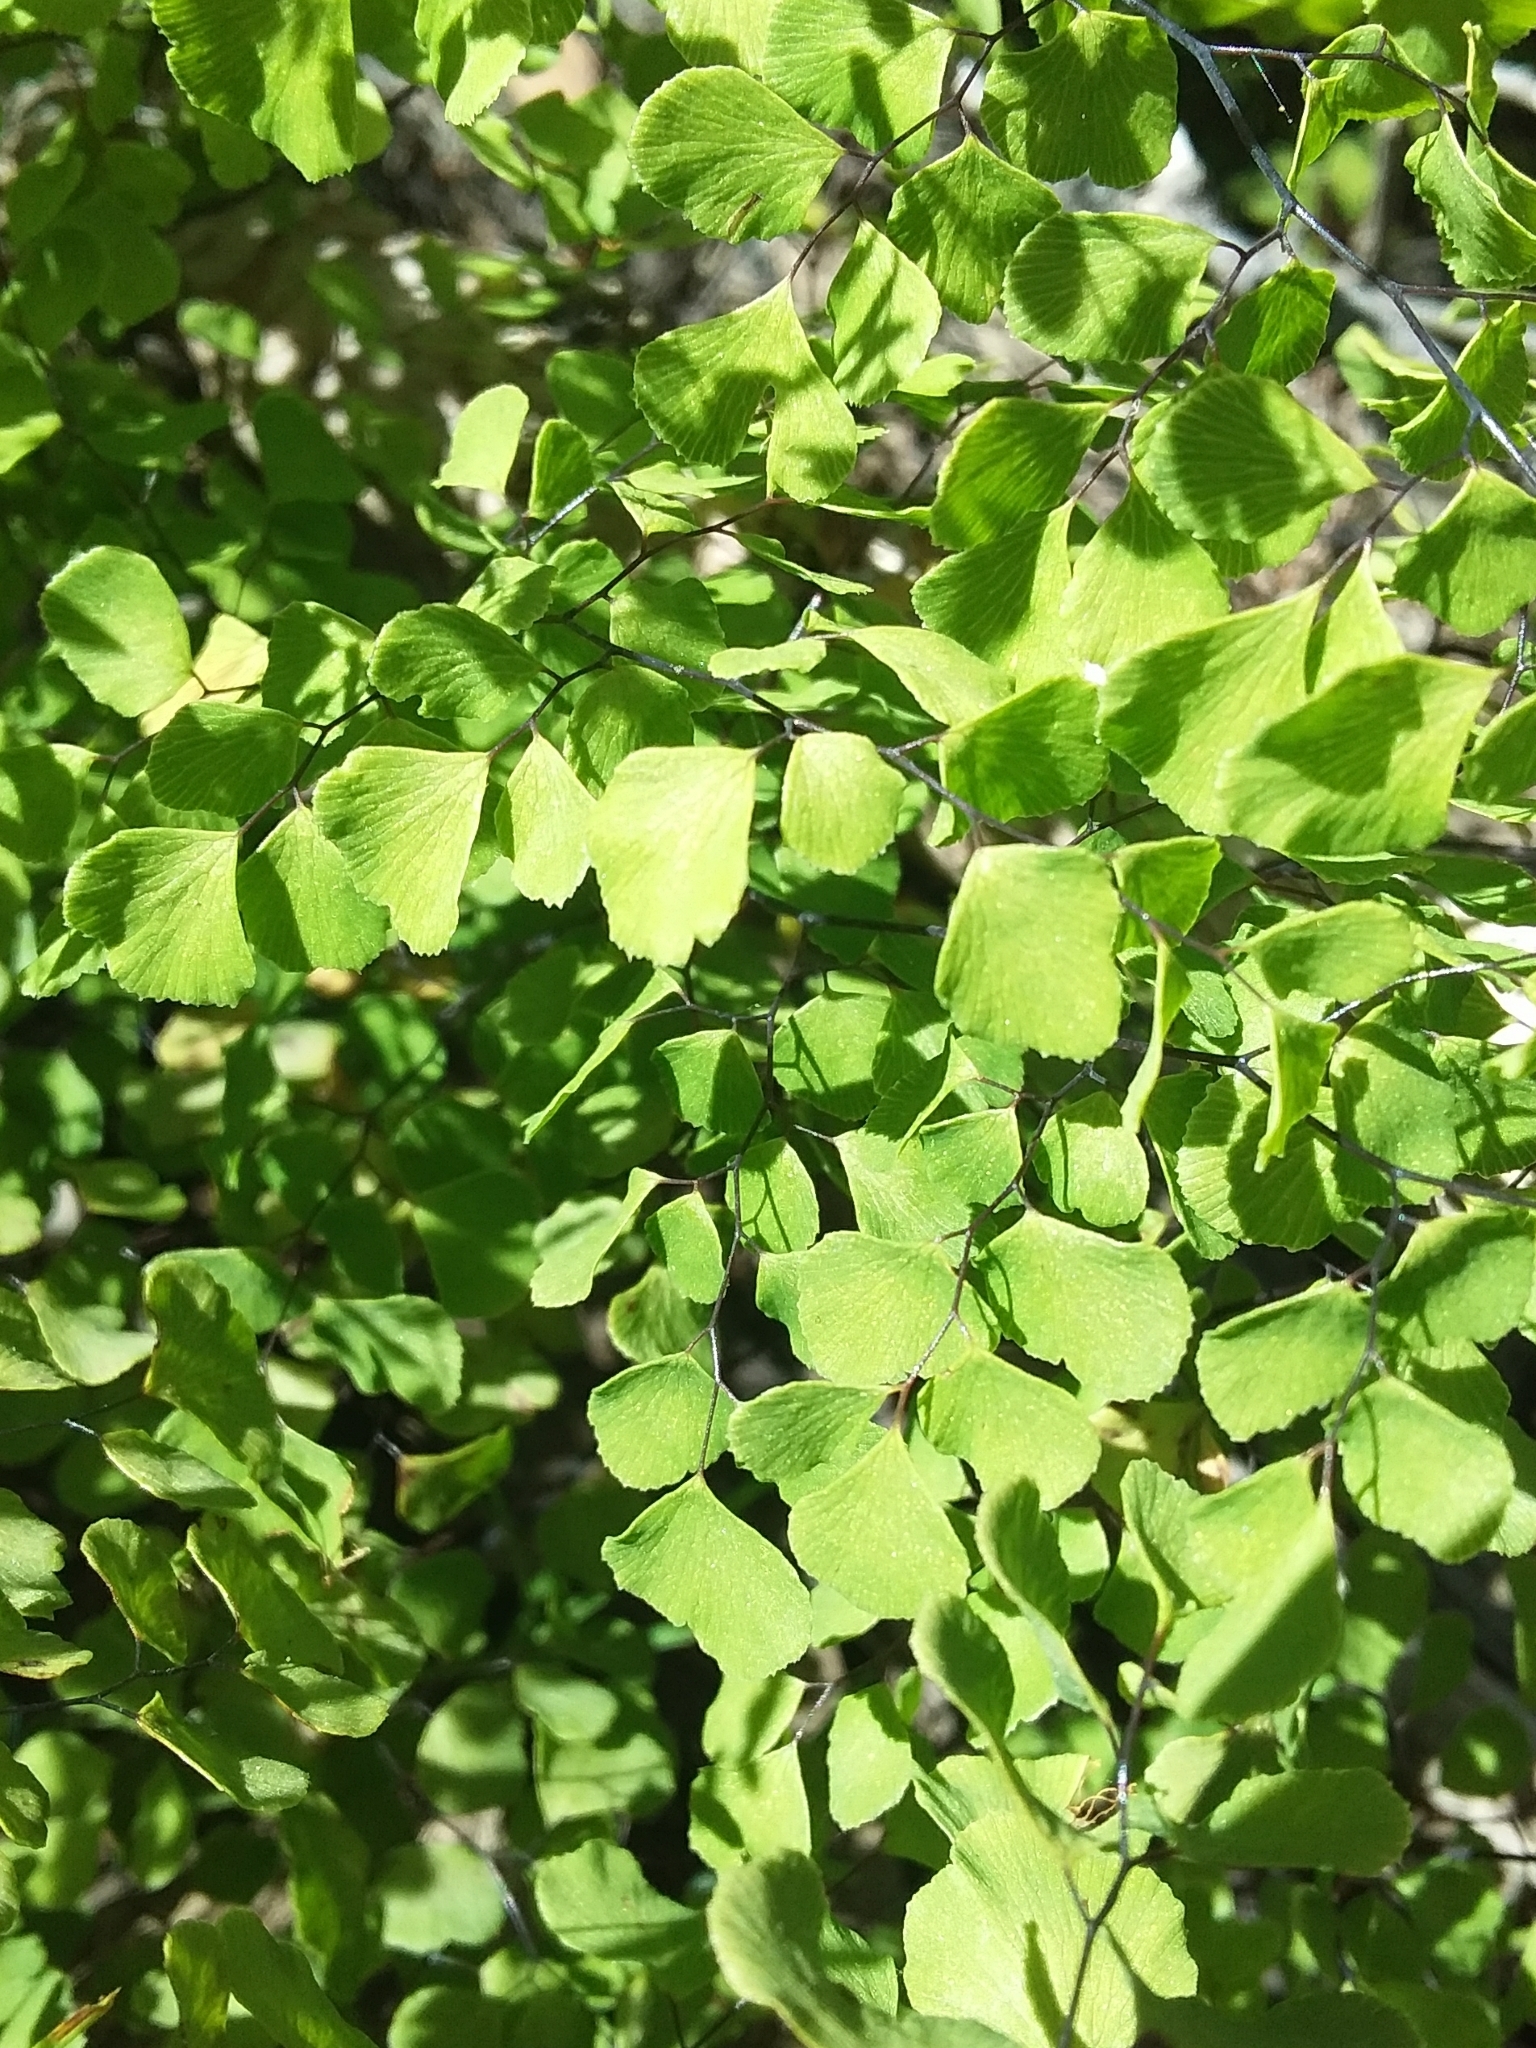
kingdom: Plantae
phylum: Tracheophyta
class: Polypodiopsida
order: Polypodiales
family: Pteridaceae
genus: Adiantum
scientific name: Adiantum aethiopicum
